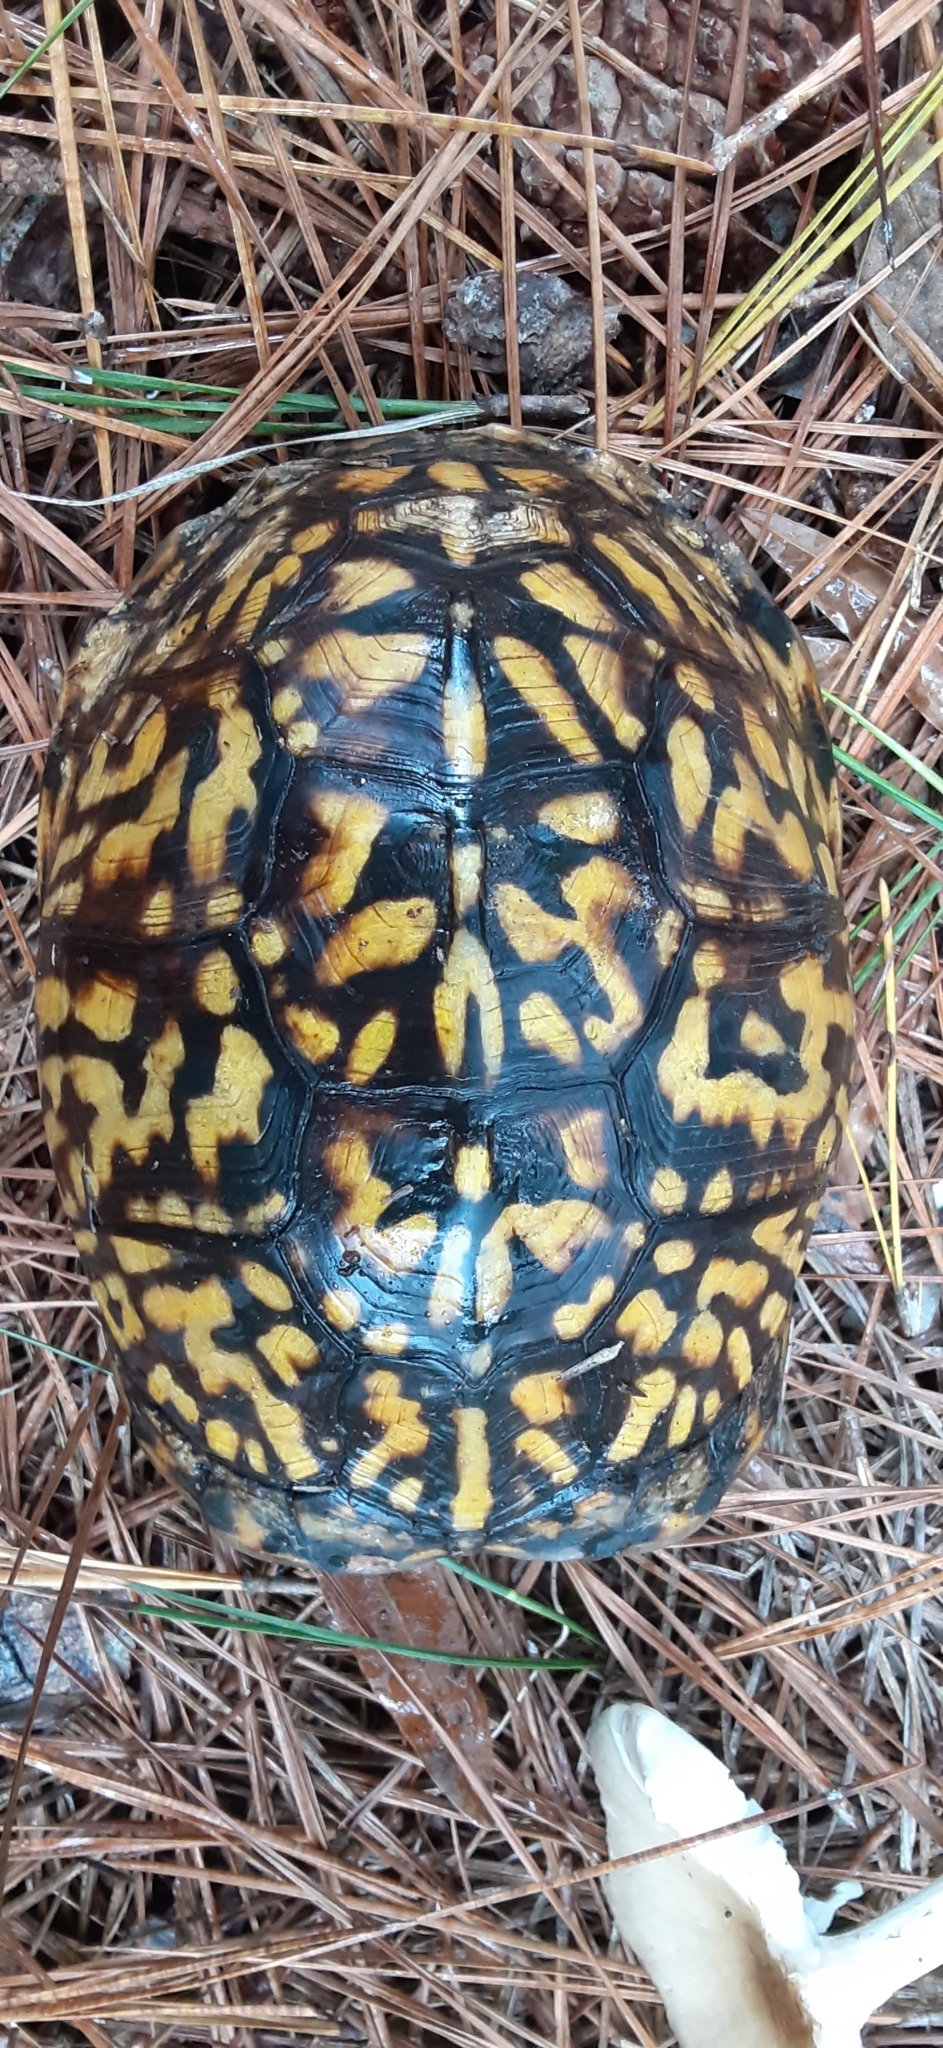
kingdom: Animalia
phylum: Chordata
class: Testudines
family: Emydidae
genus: Terrapene
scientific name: Terrapene carolina
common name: Common box turtle
